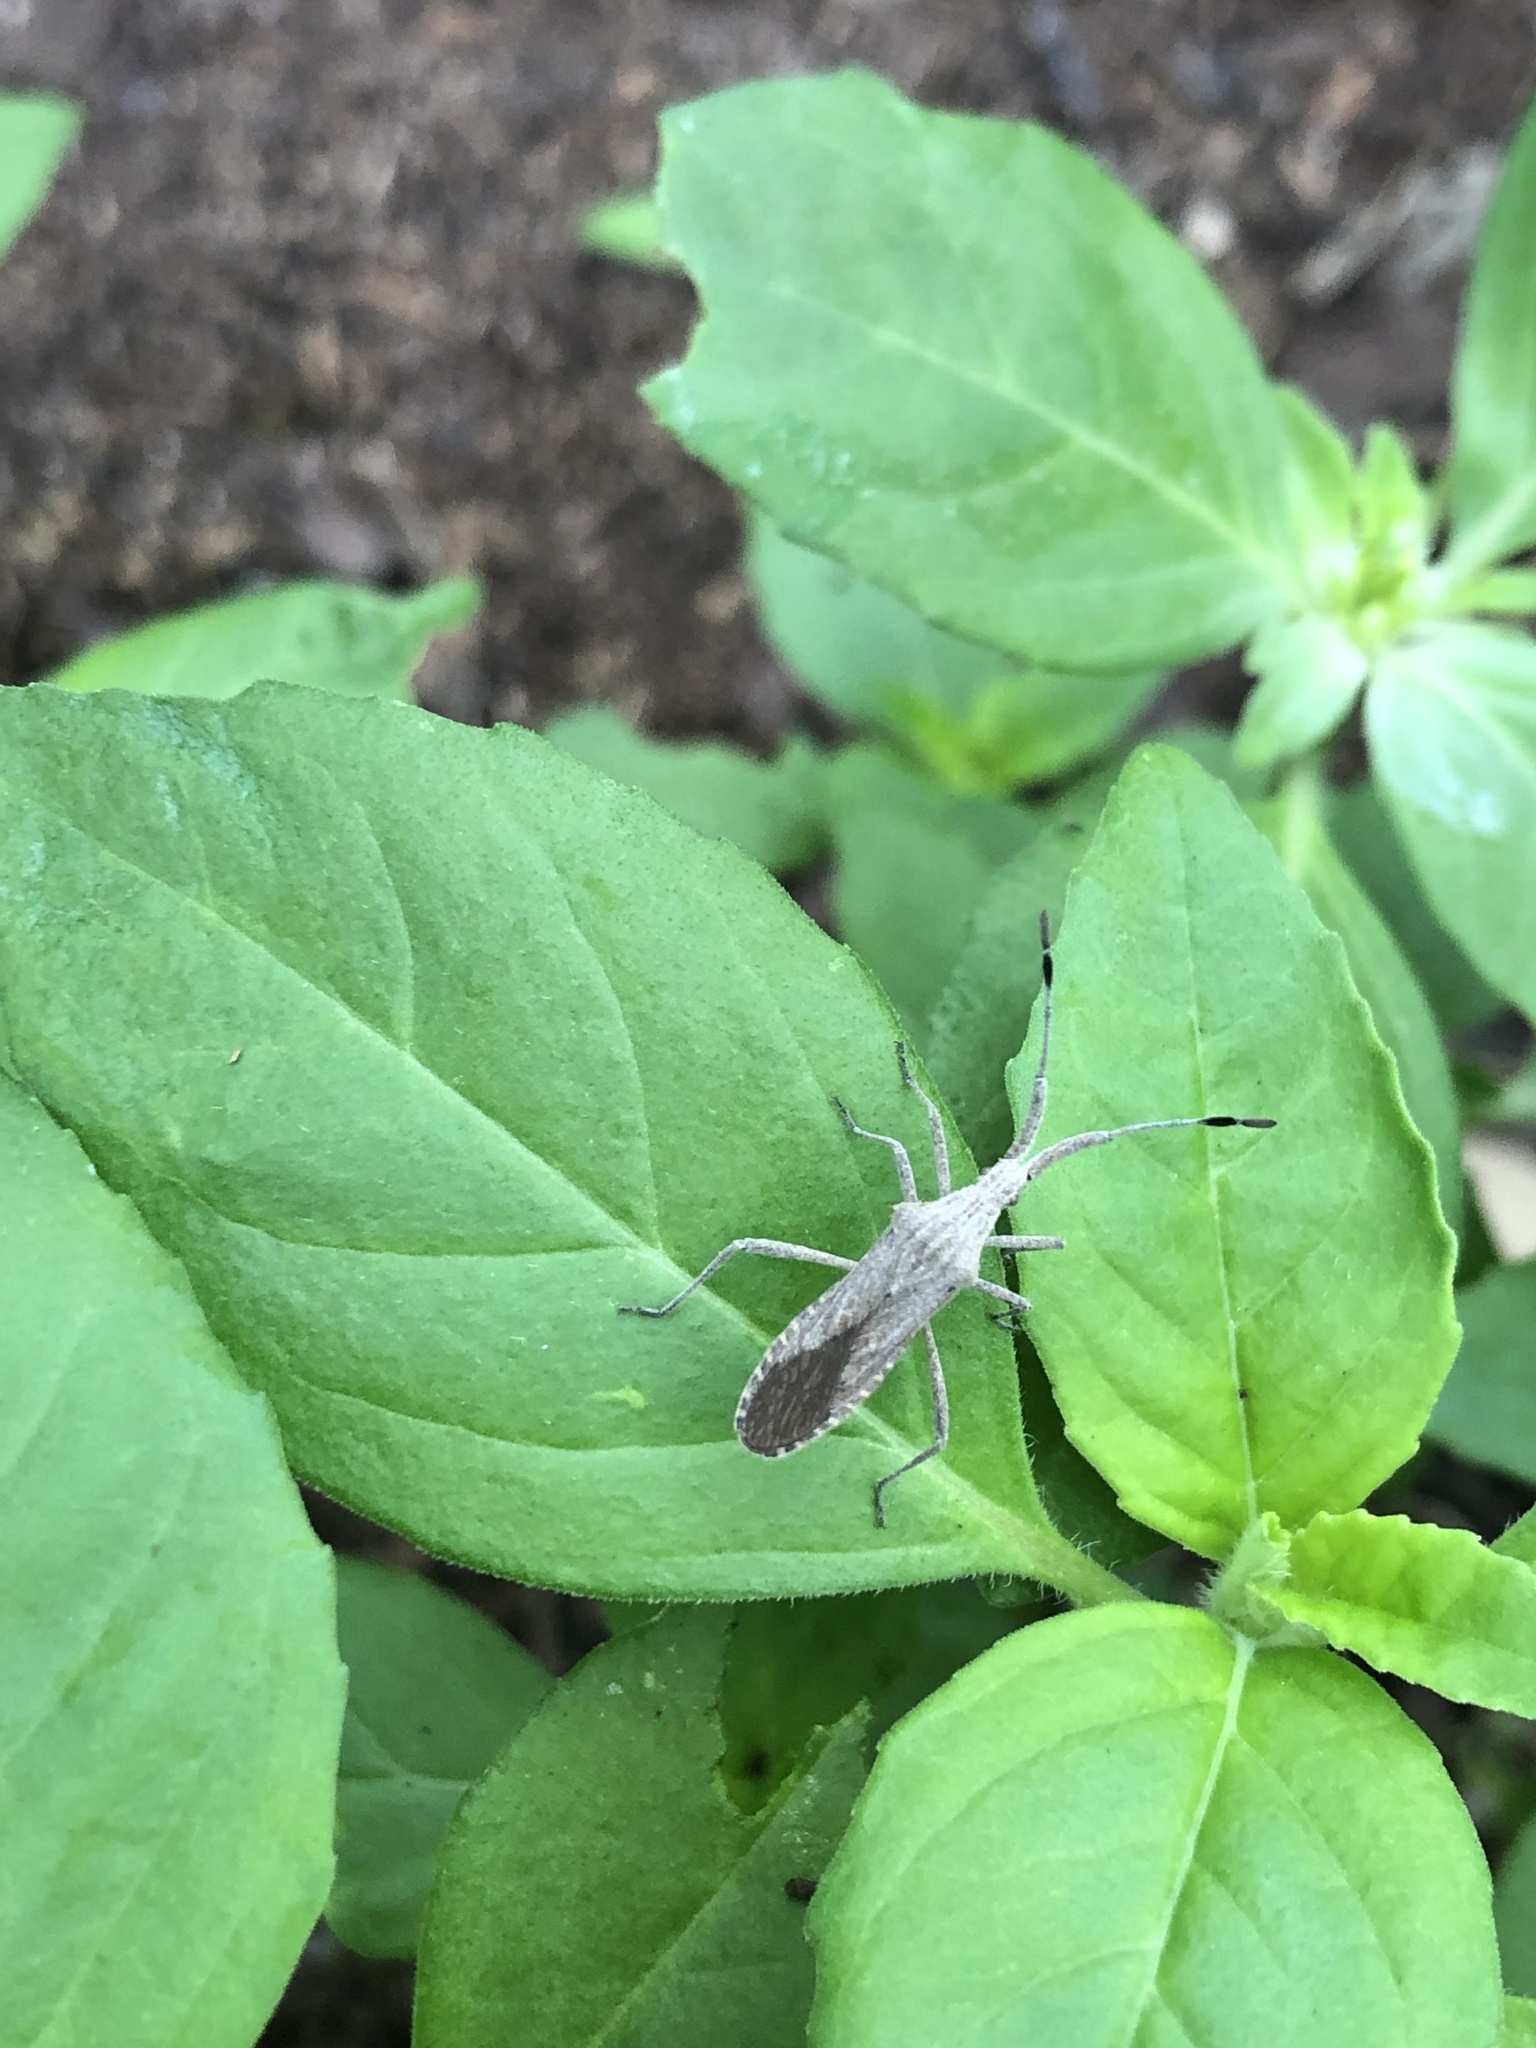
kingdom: Animalia
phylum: Arthropoda
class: Insecta
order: Hemiptera
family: Coreidae
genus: Chariesterus
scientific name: Chariesterus antennator
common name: Flat horned coreid
